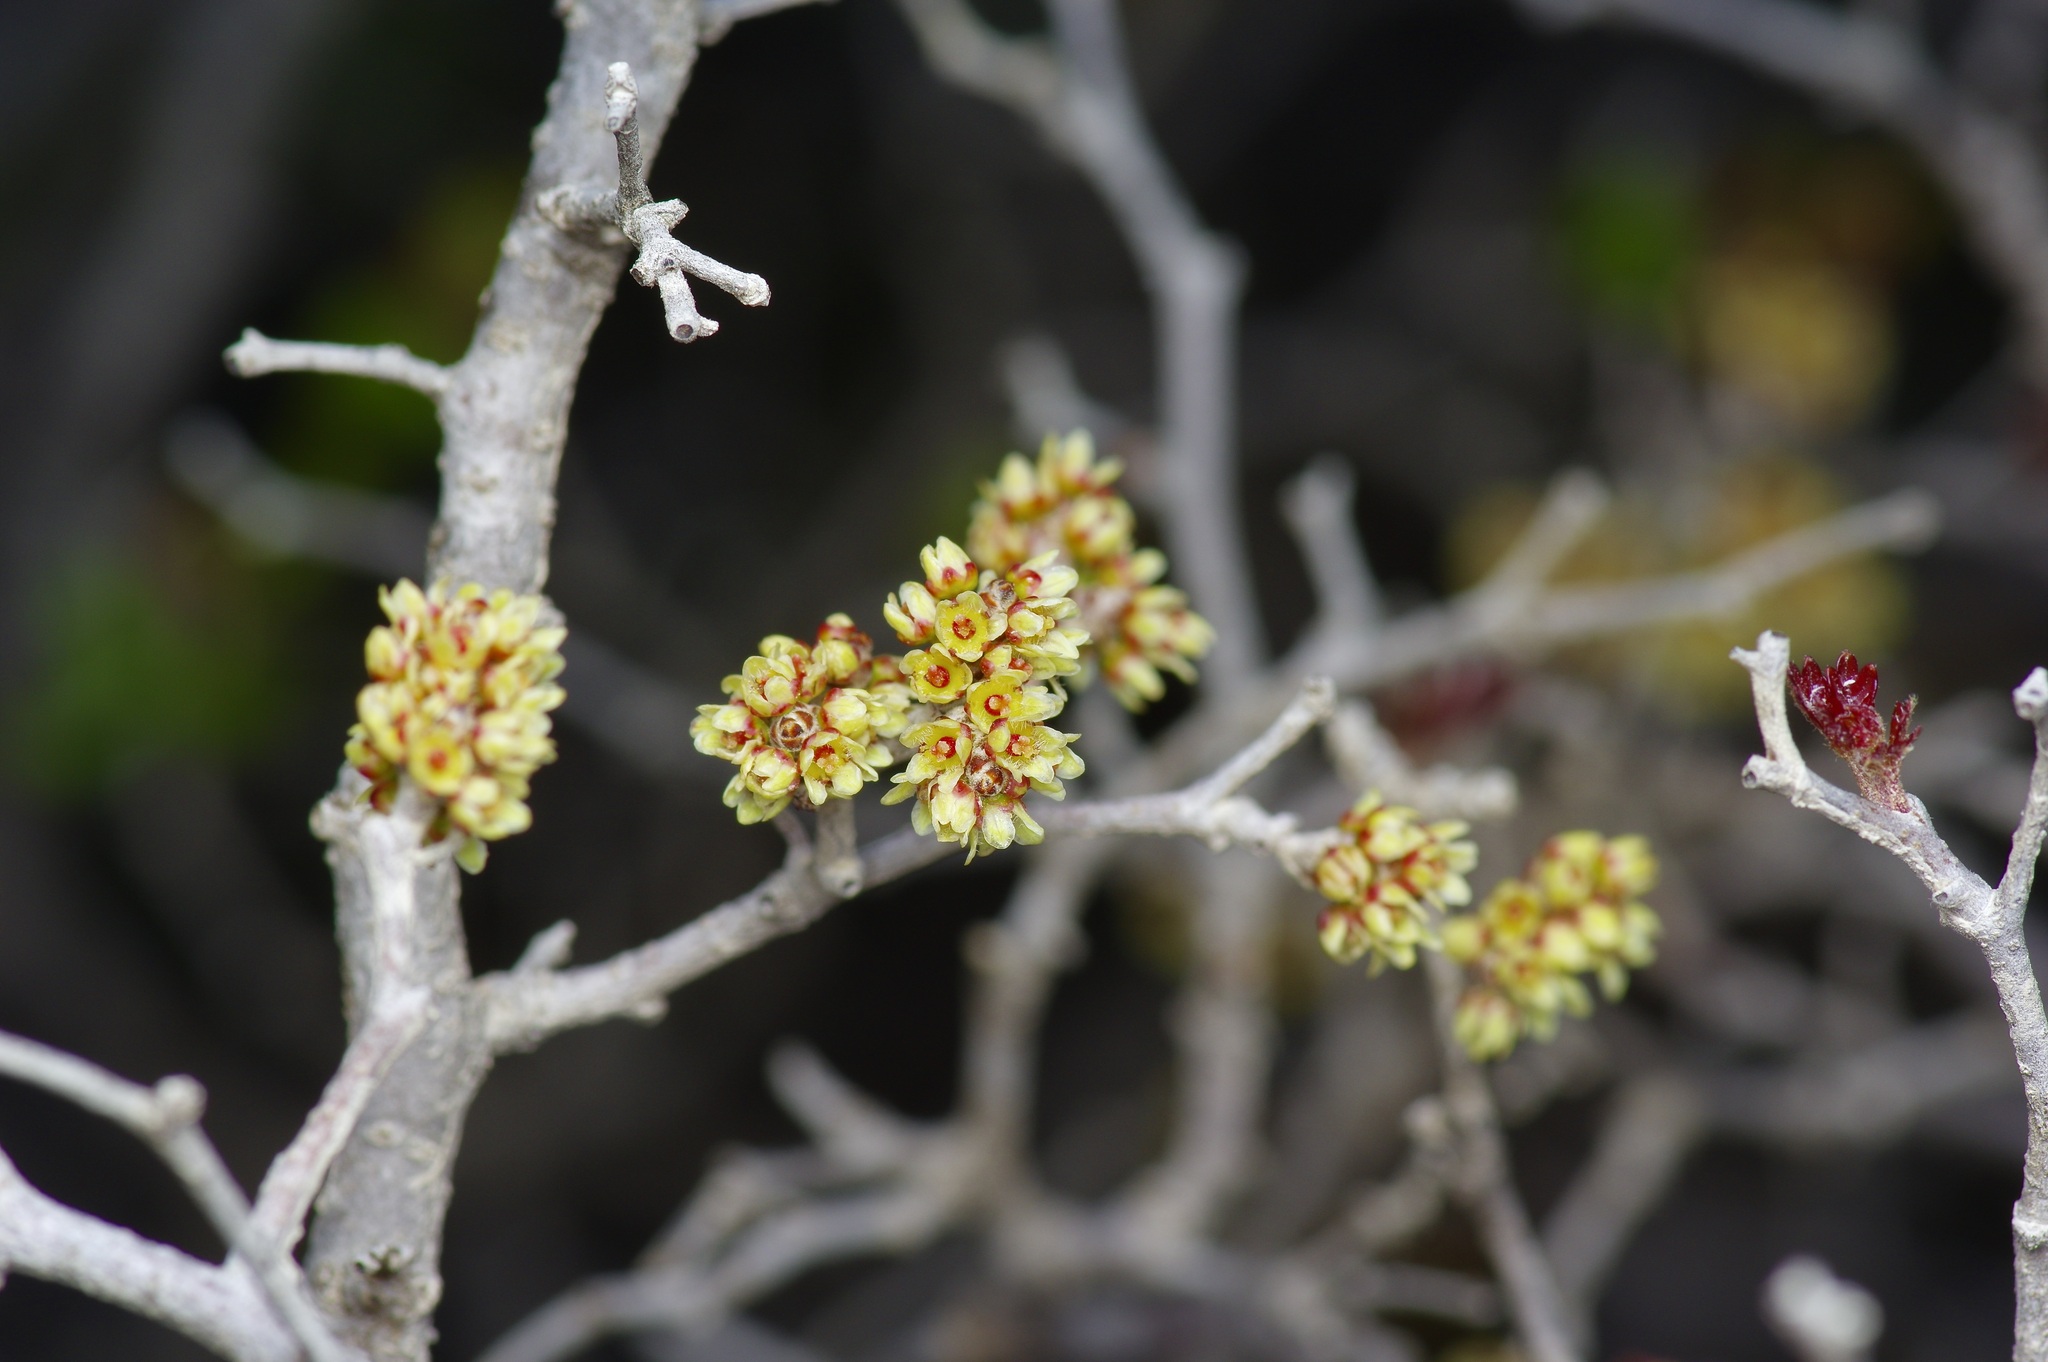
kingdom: Plantae
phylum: Tracheophyta
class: Magnoliopsida
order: Sapindales
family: Anacardiaceae
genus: Rhus
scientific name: Rhus aromatica
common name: Aromatic sumac
